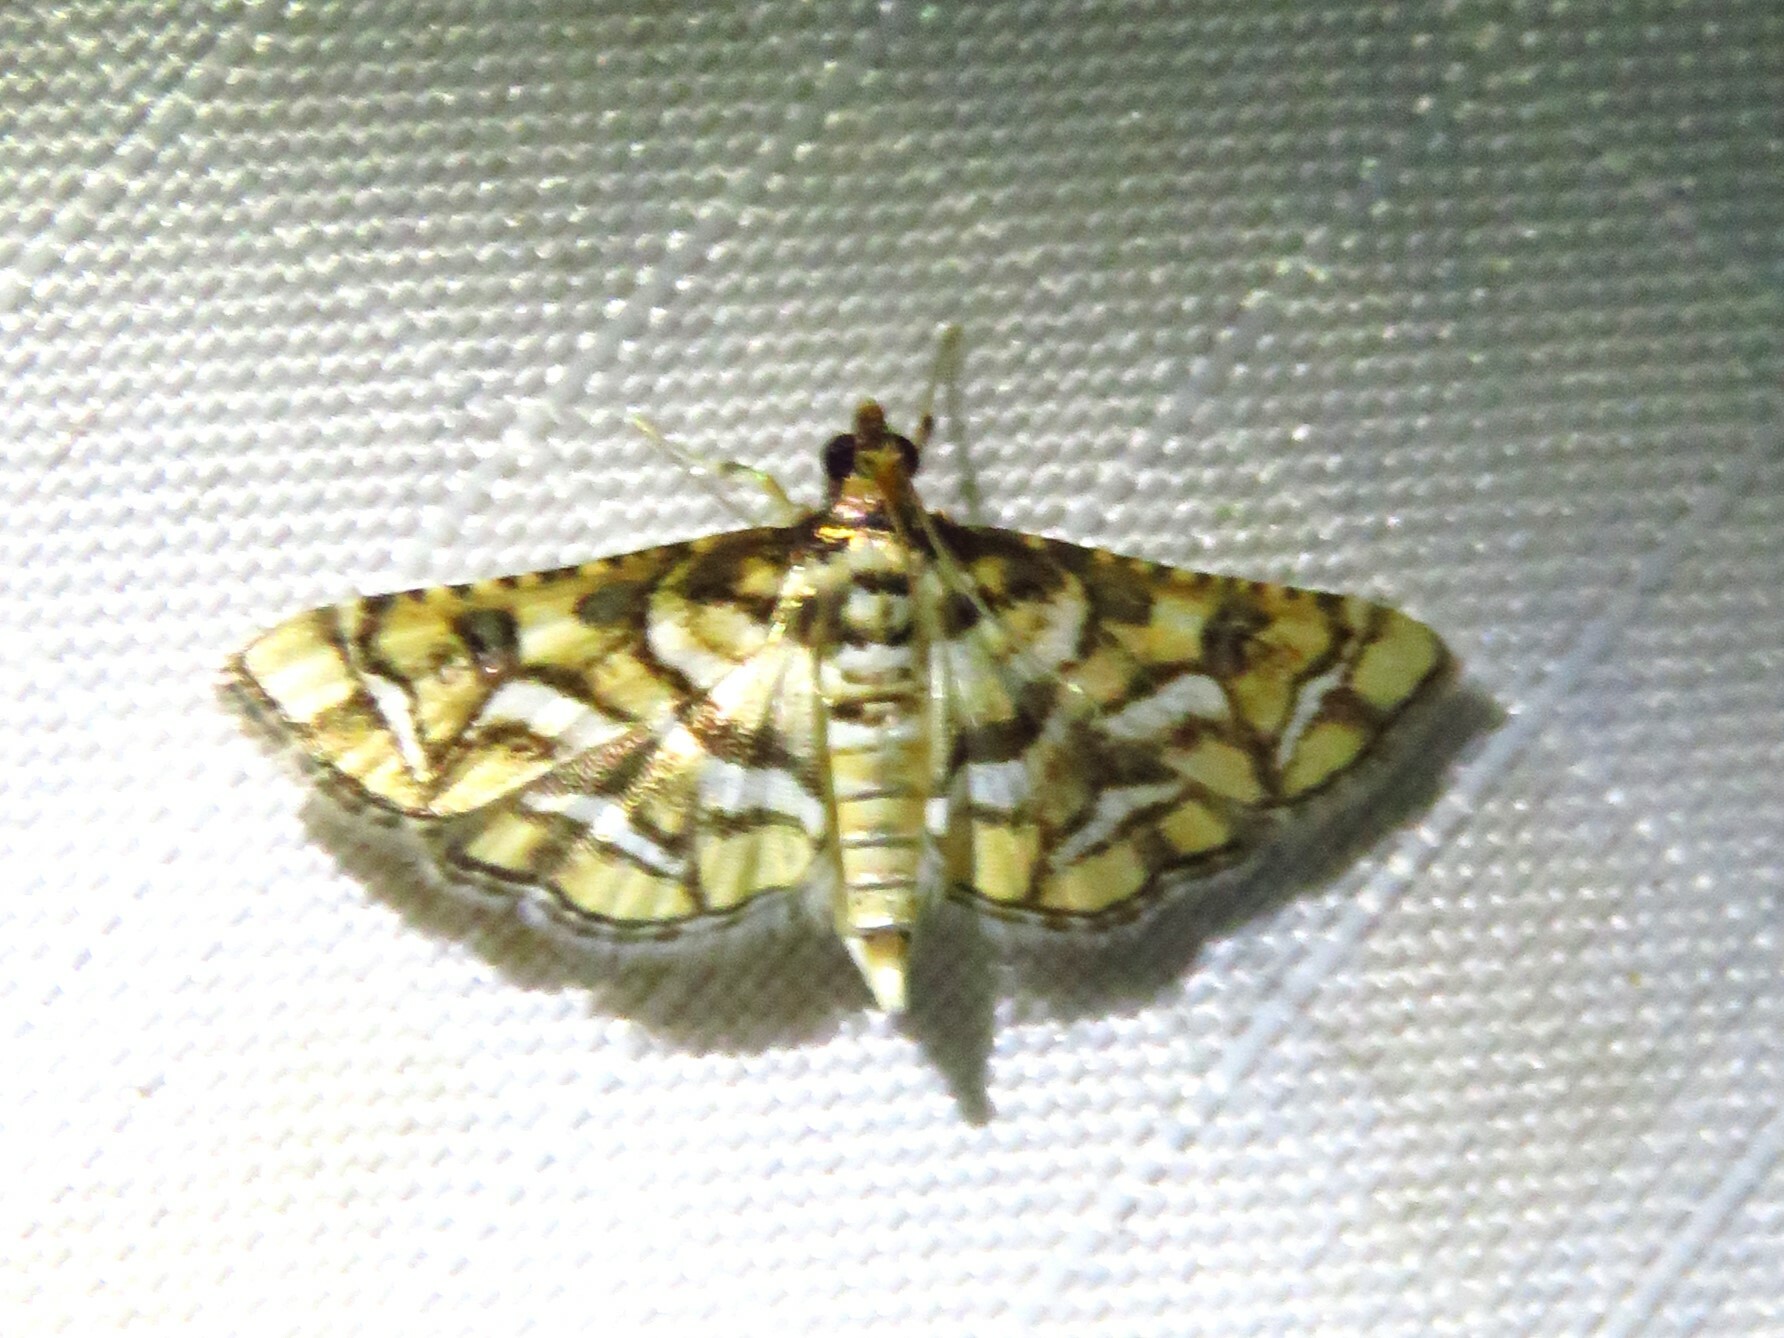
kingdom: Animalia
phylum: Arthropoda
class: Insecta
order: Lepidoptera
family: Crambidae
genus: Hileithia
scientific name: Hileithia magualis
